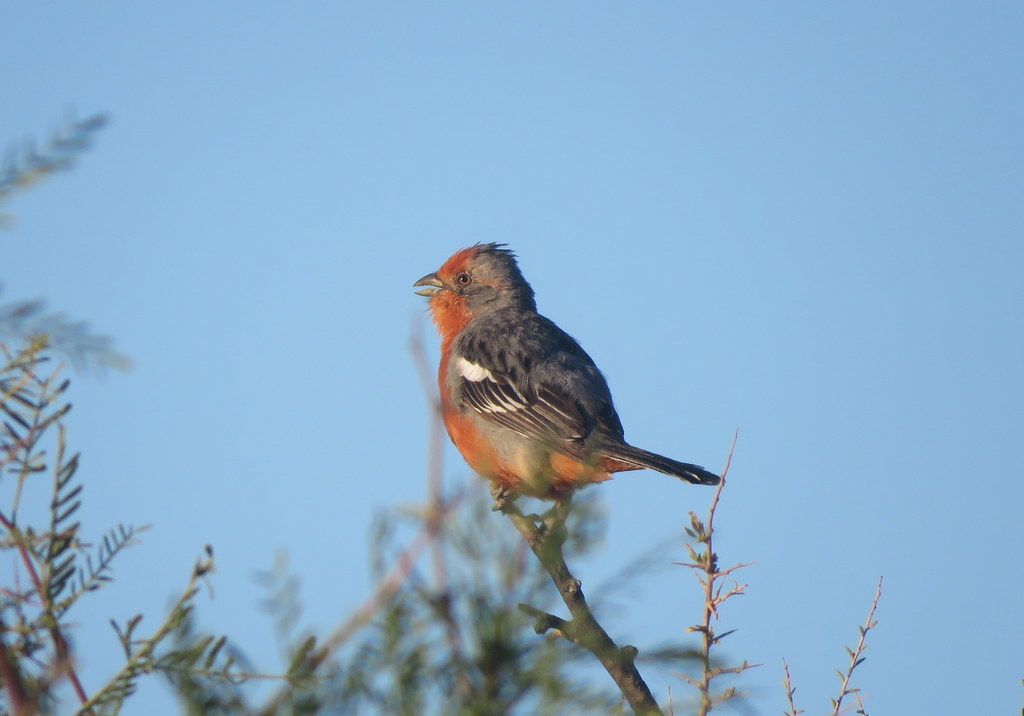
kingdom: Animalia
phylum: Chordata
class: Aves
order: Passeriformes
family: Cotingidae
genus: Phytotoma
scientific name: Phytotoma rutila
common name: White-tipped plantcutter
